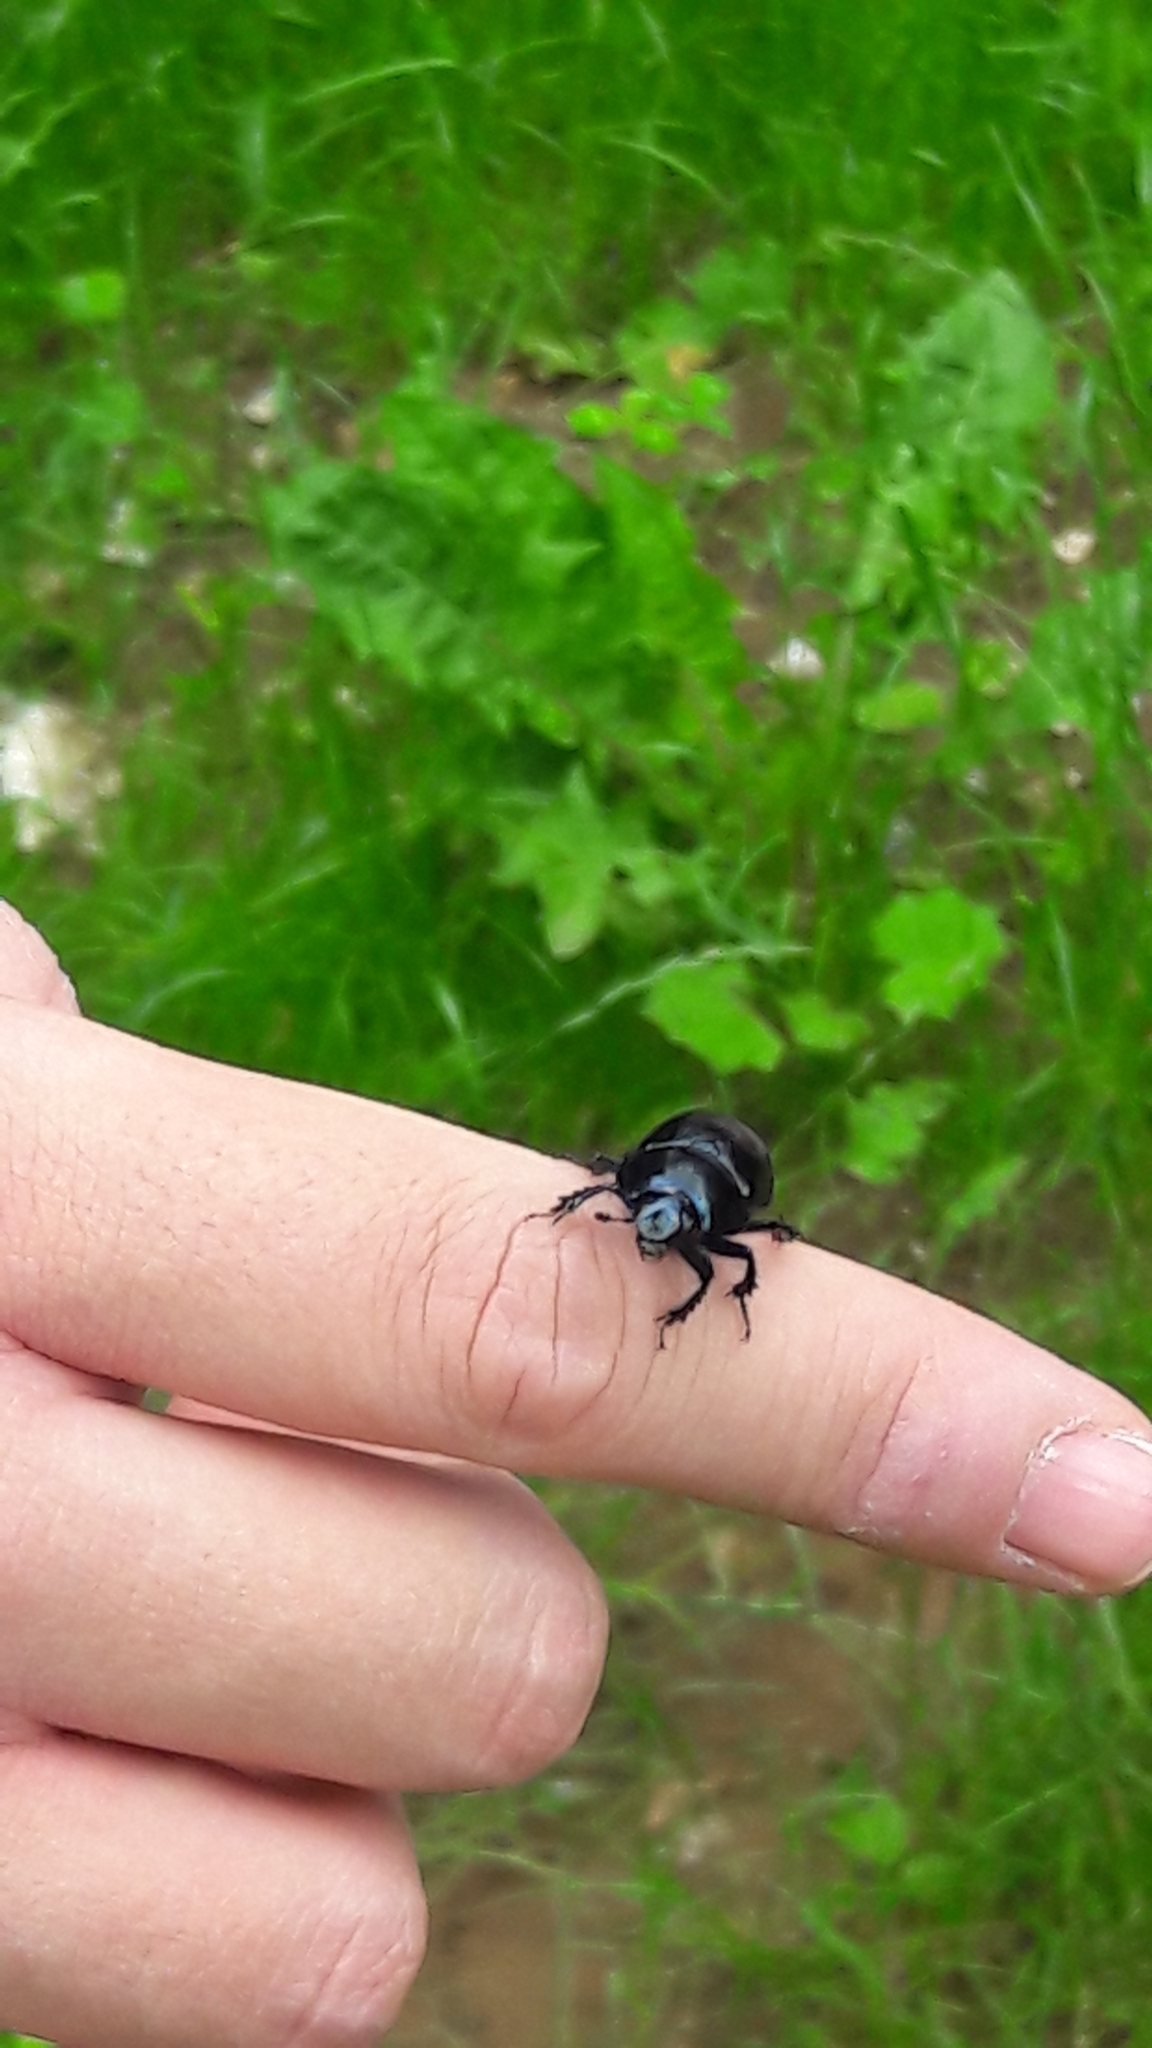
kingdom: Animalia
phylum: Arthropoda
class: Insecta
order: Coleoptera
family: Geotrupidae
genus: Anoplotrupes
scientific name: Anoplotrupes stercorosus
